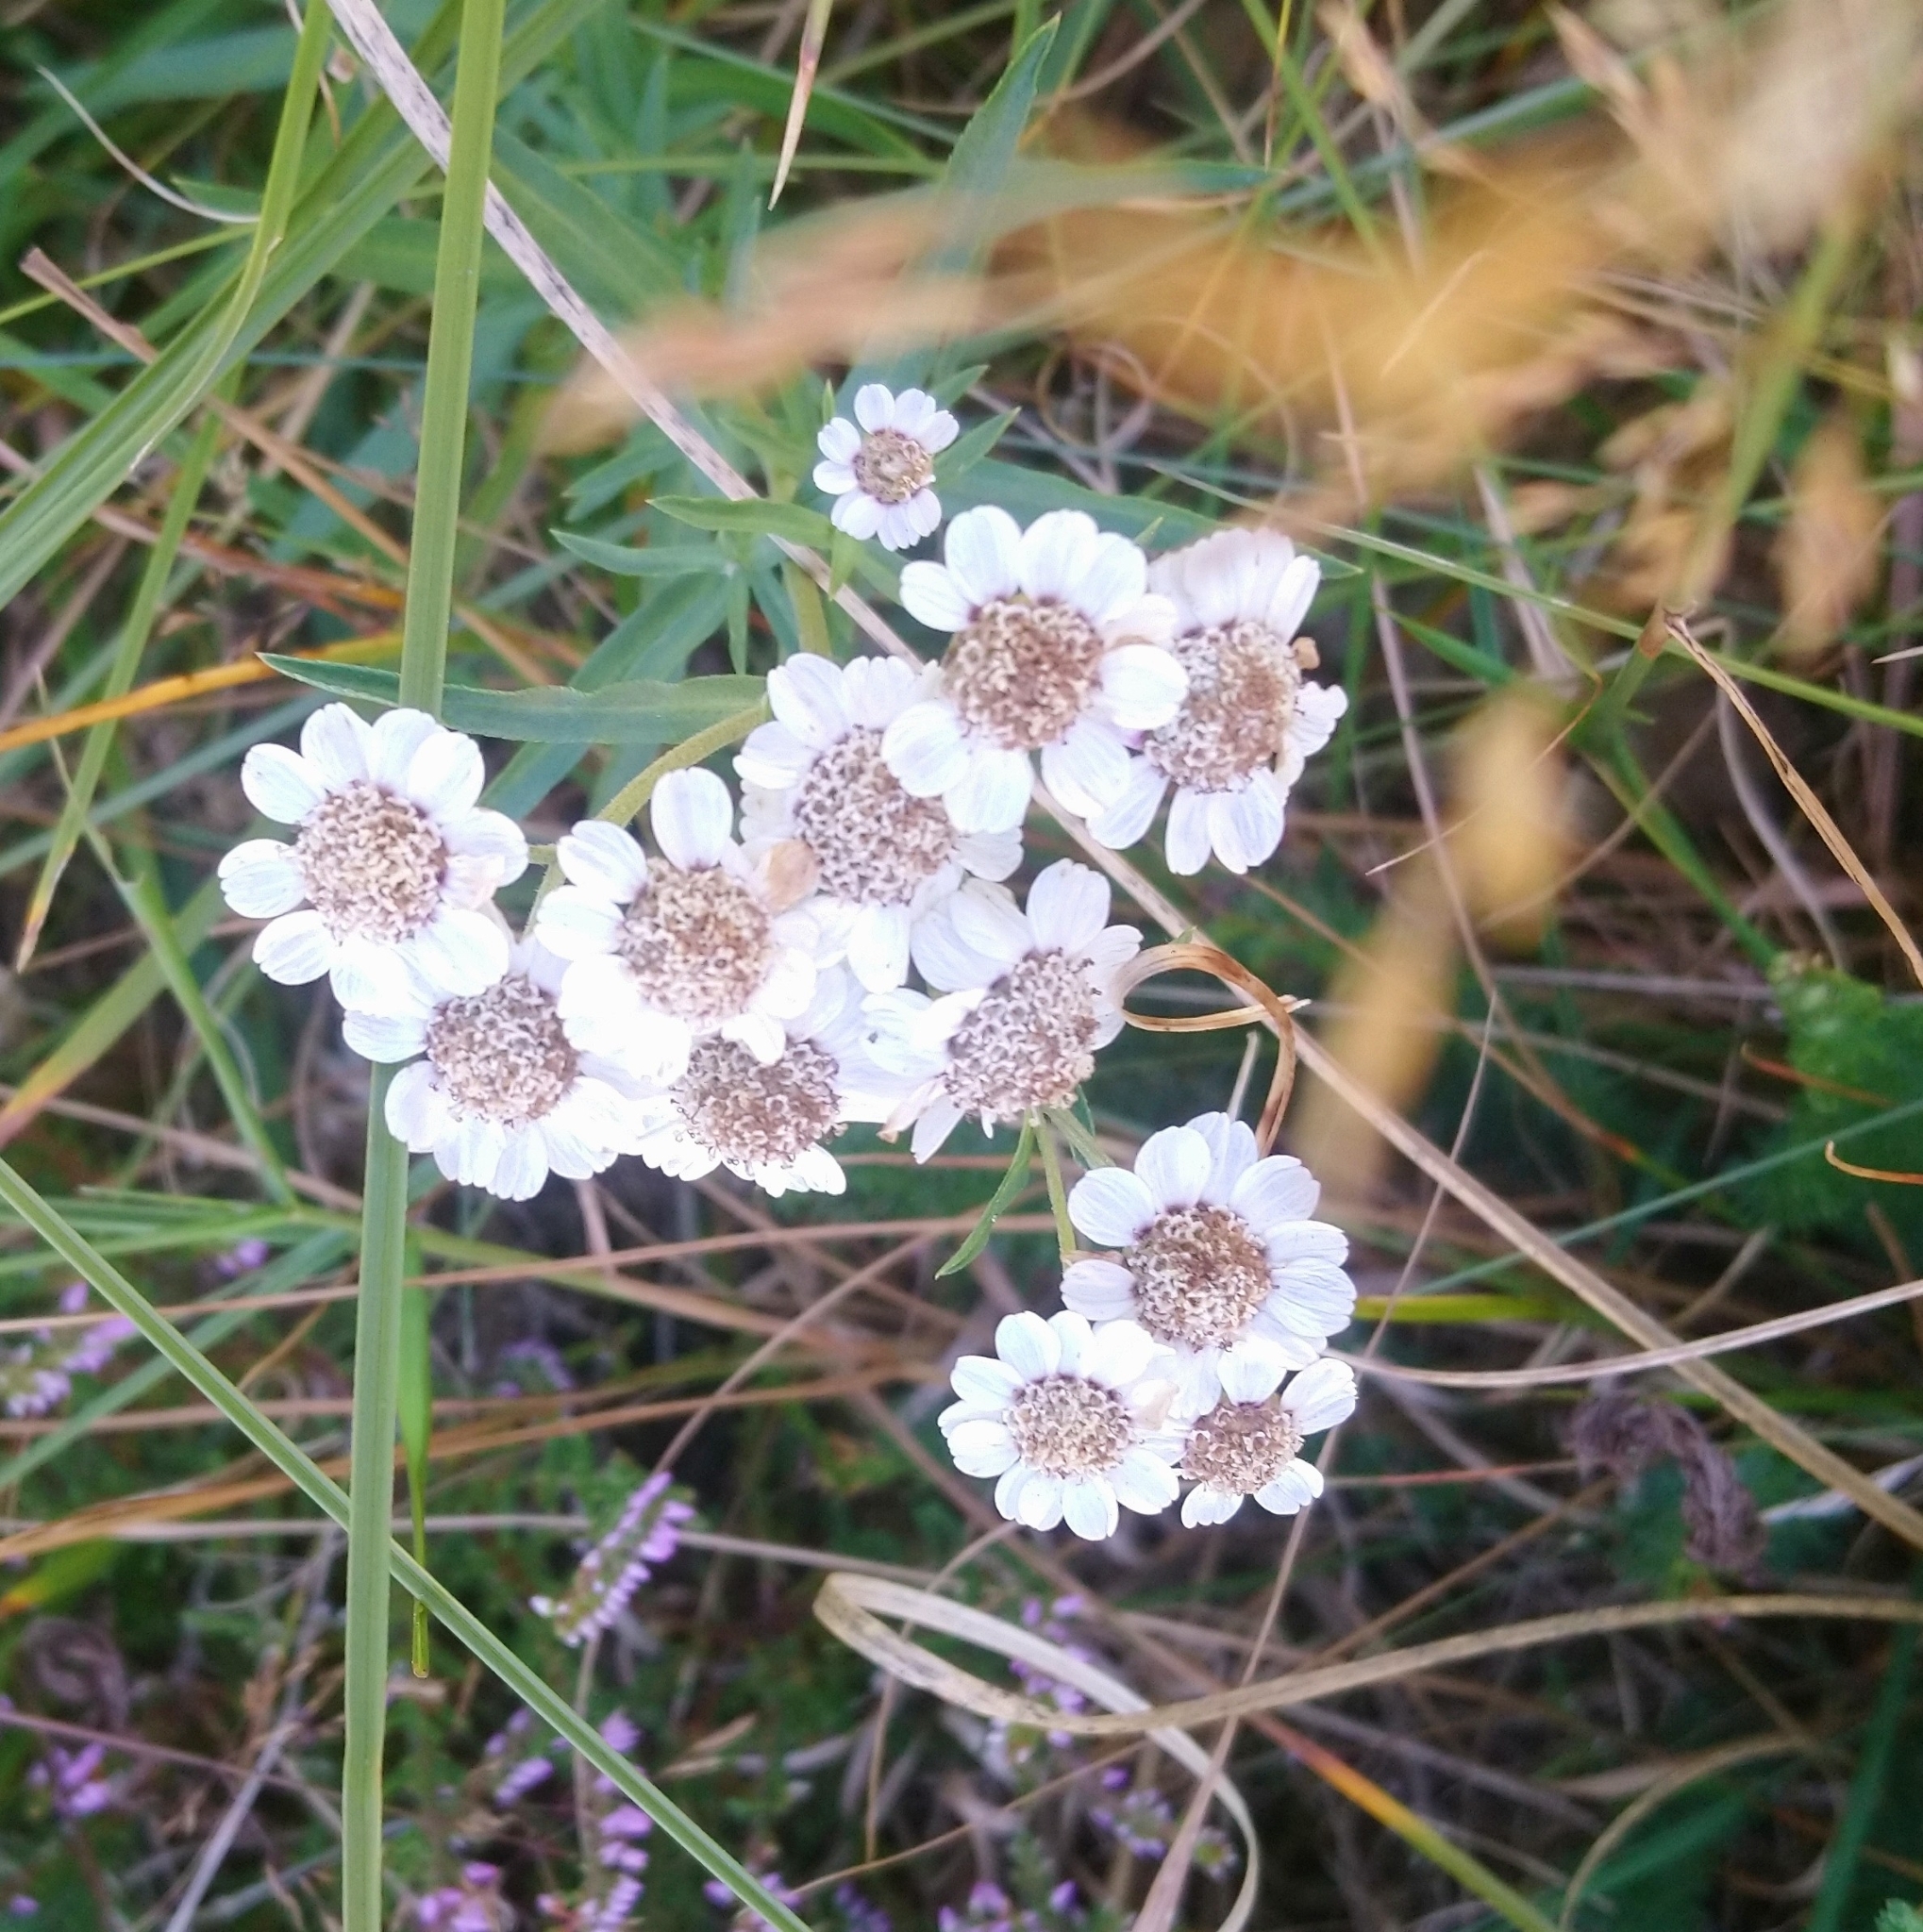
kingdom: Plantae
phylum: Tracheophyta
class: Magnoliopsida
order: Asterales
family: Asteraceae
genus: Achillea
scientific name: Achillea ptarmica
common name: Sneezeweed
